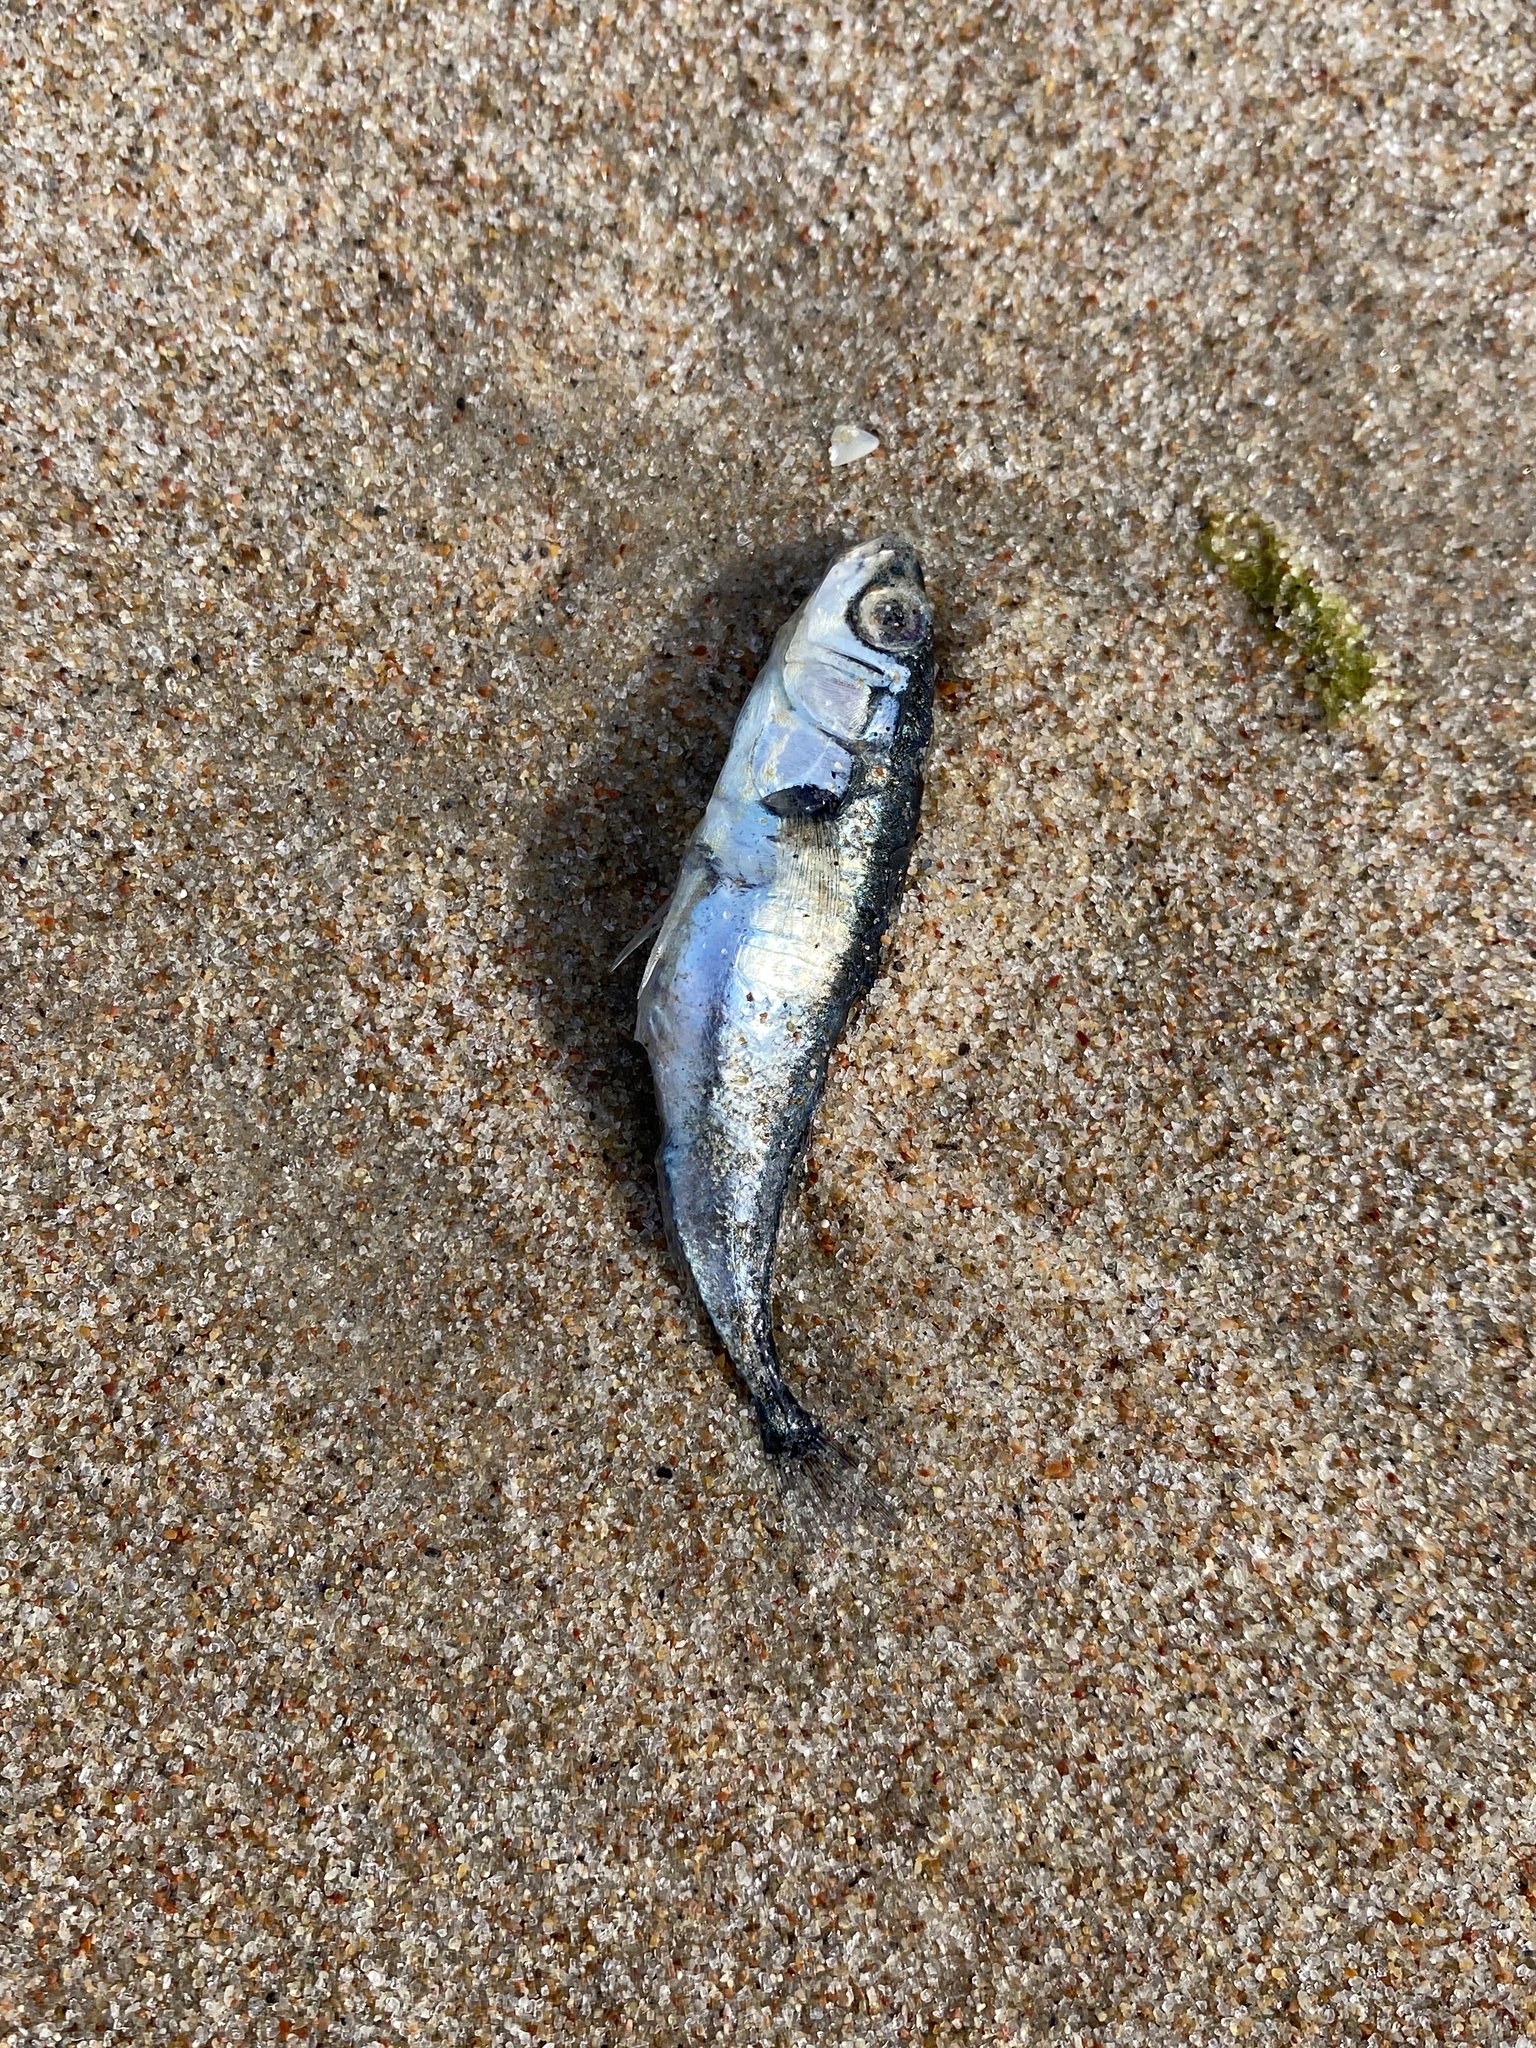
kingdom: Animalia
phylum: Chordata
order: Gasterosteiformes
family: Gasterosteidae
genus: Gasterosteus
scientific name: Gasterosteus aculeatus
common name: Three-spined stickleback
